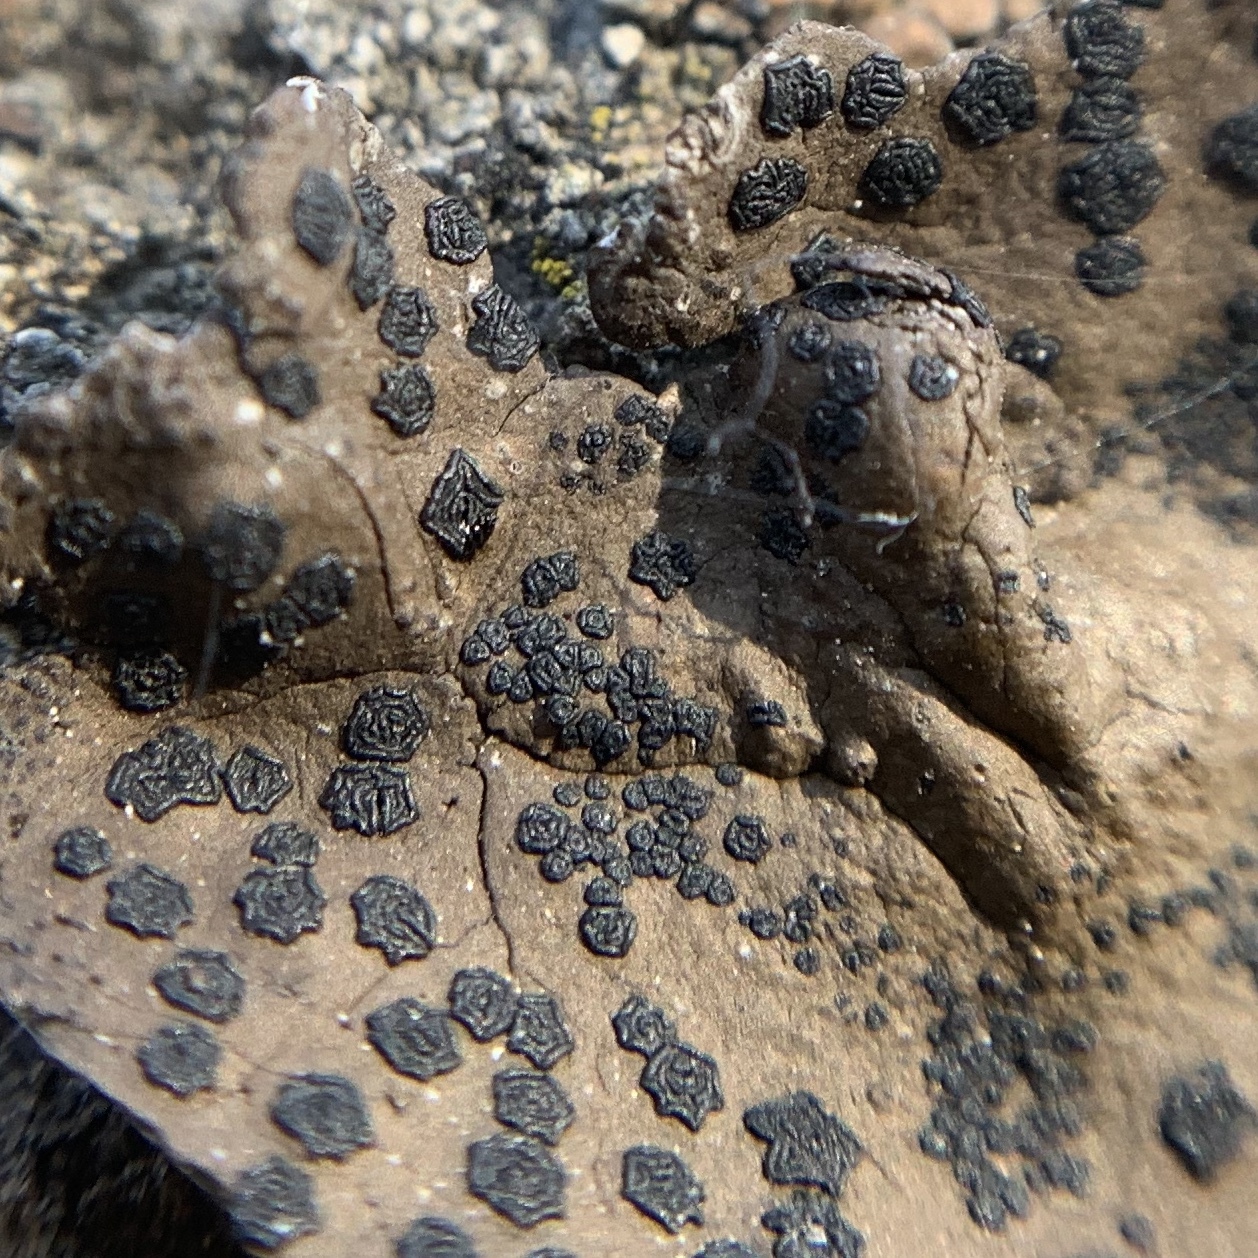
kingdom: Fungi
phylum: Ascomycota
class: Lecanoromycetes
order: Umbilicariales
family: Umbilicariaceae
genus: Umbilicaria
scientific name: Umbilicaria phaea
